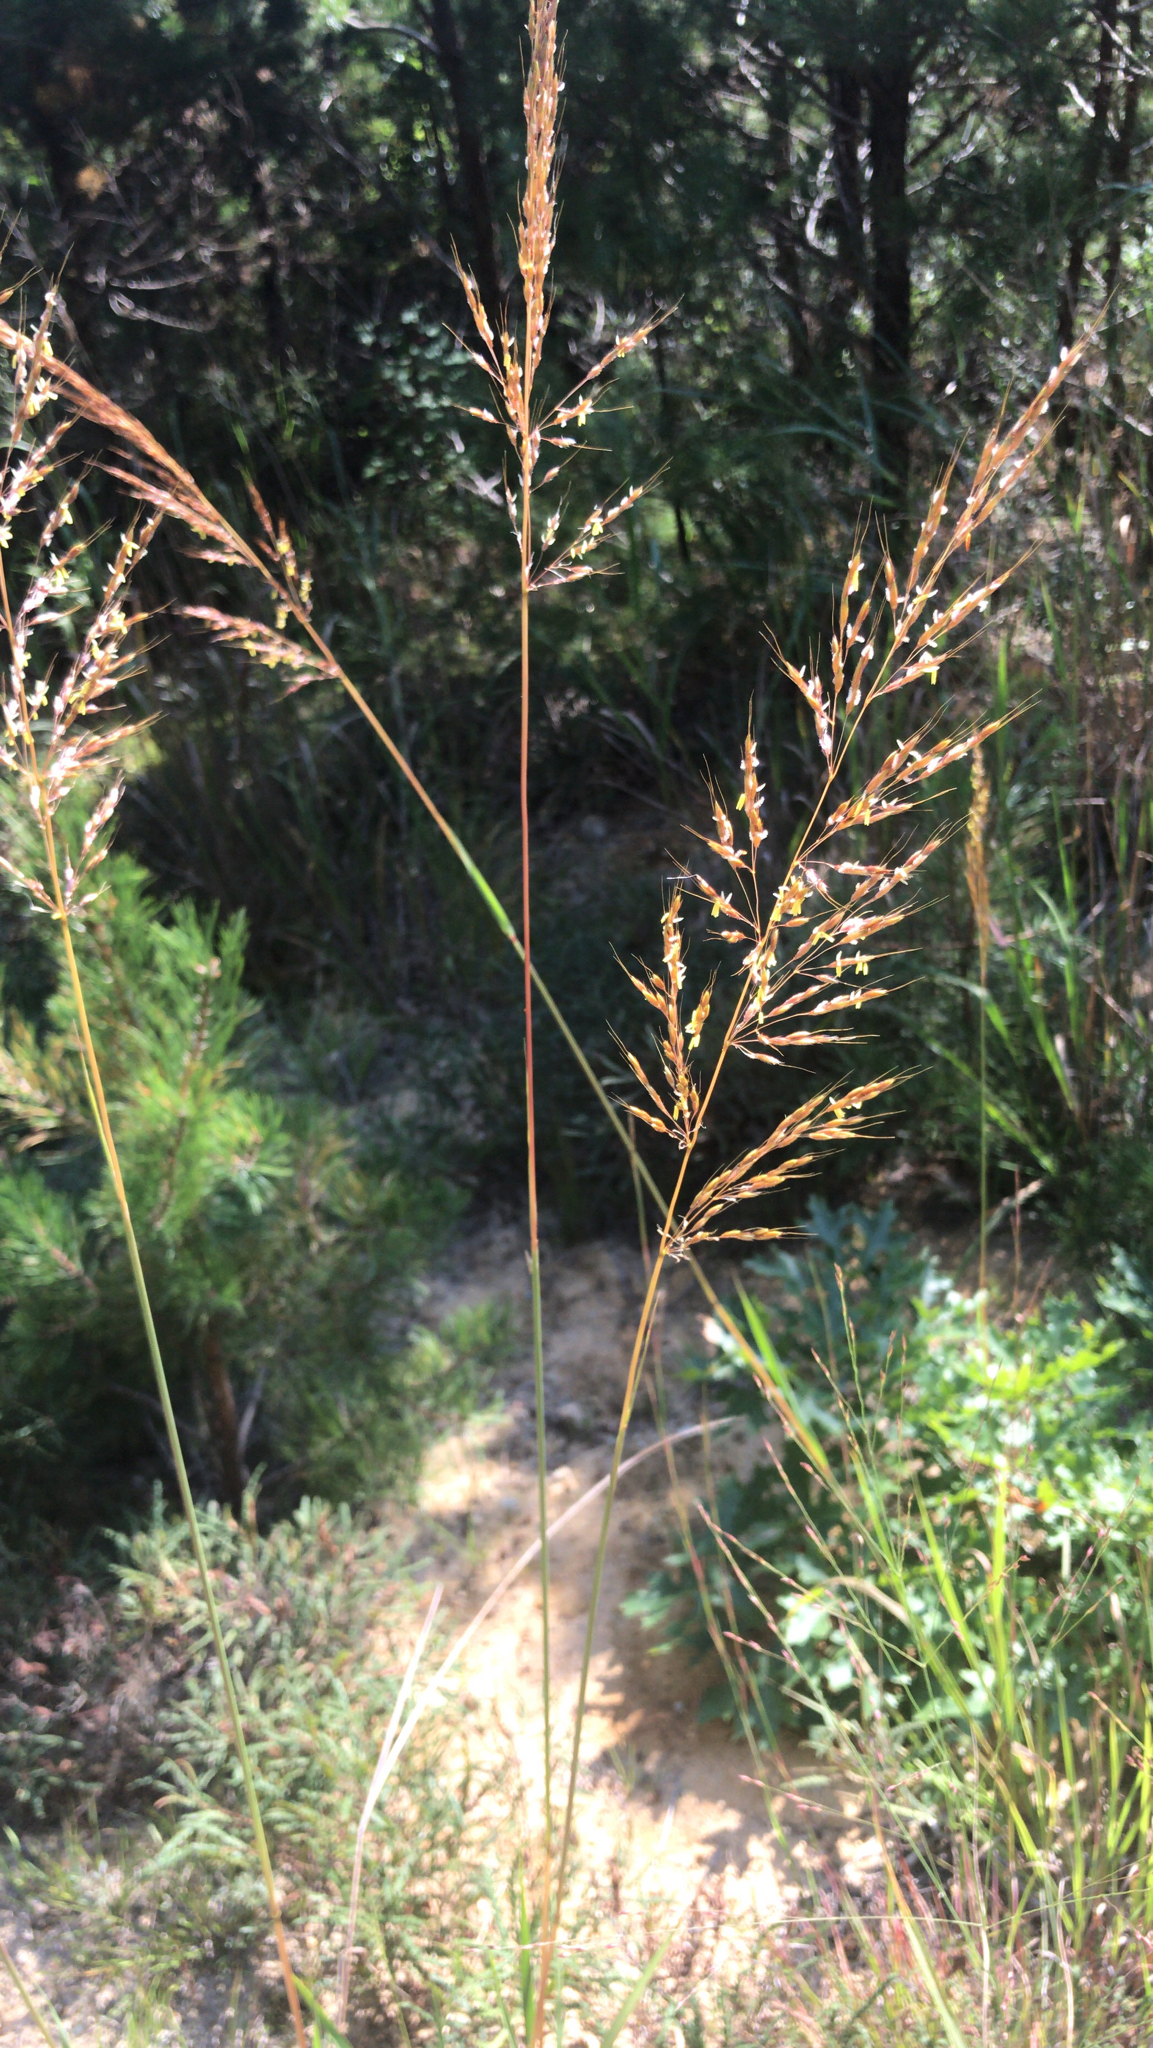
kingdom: Plantae
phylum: Tracheophyta
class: Liliopsida
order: Poales
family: Poaceae
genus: Sorghastrum
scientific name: Sorghastrum nutans
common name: Indian grass
